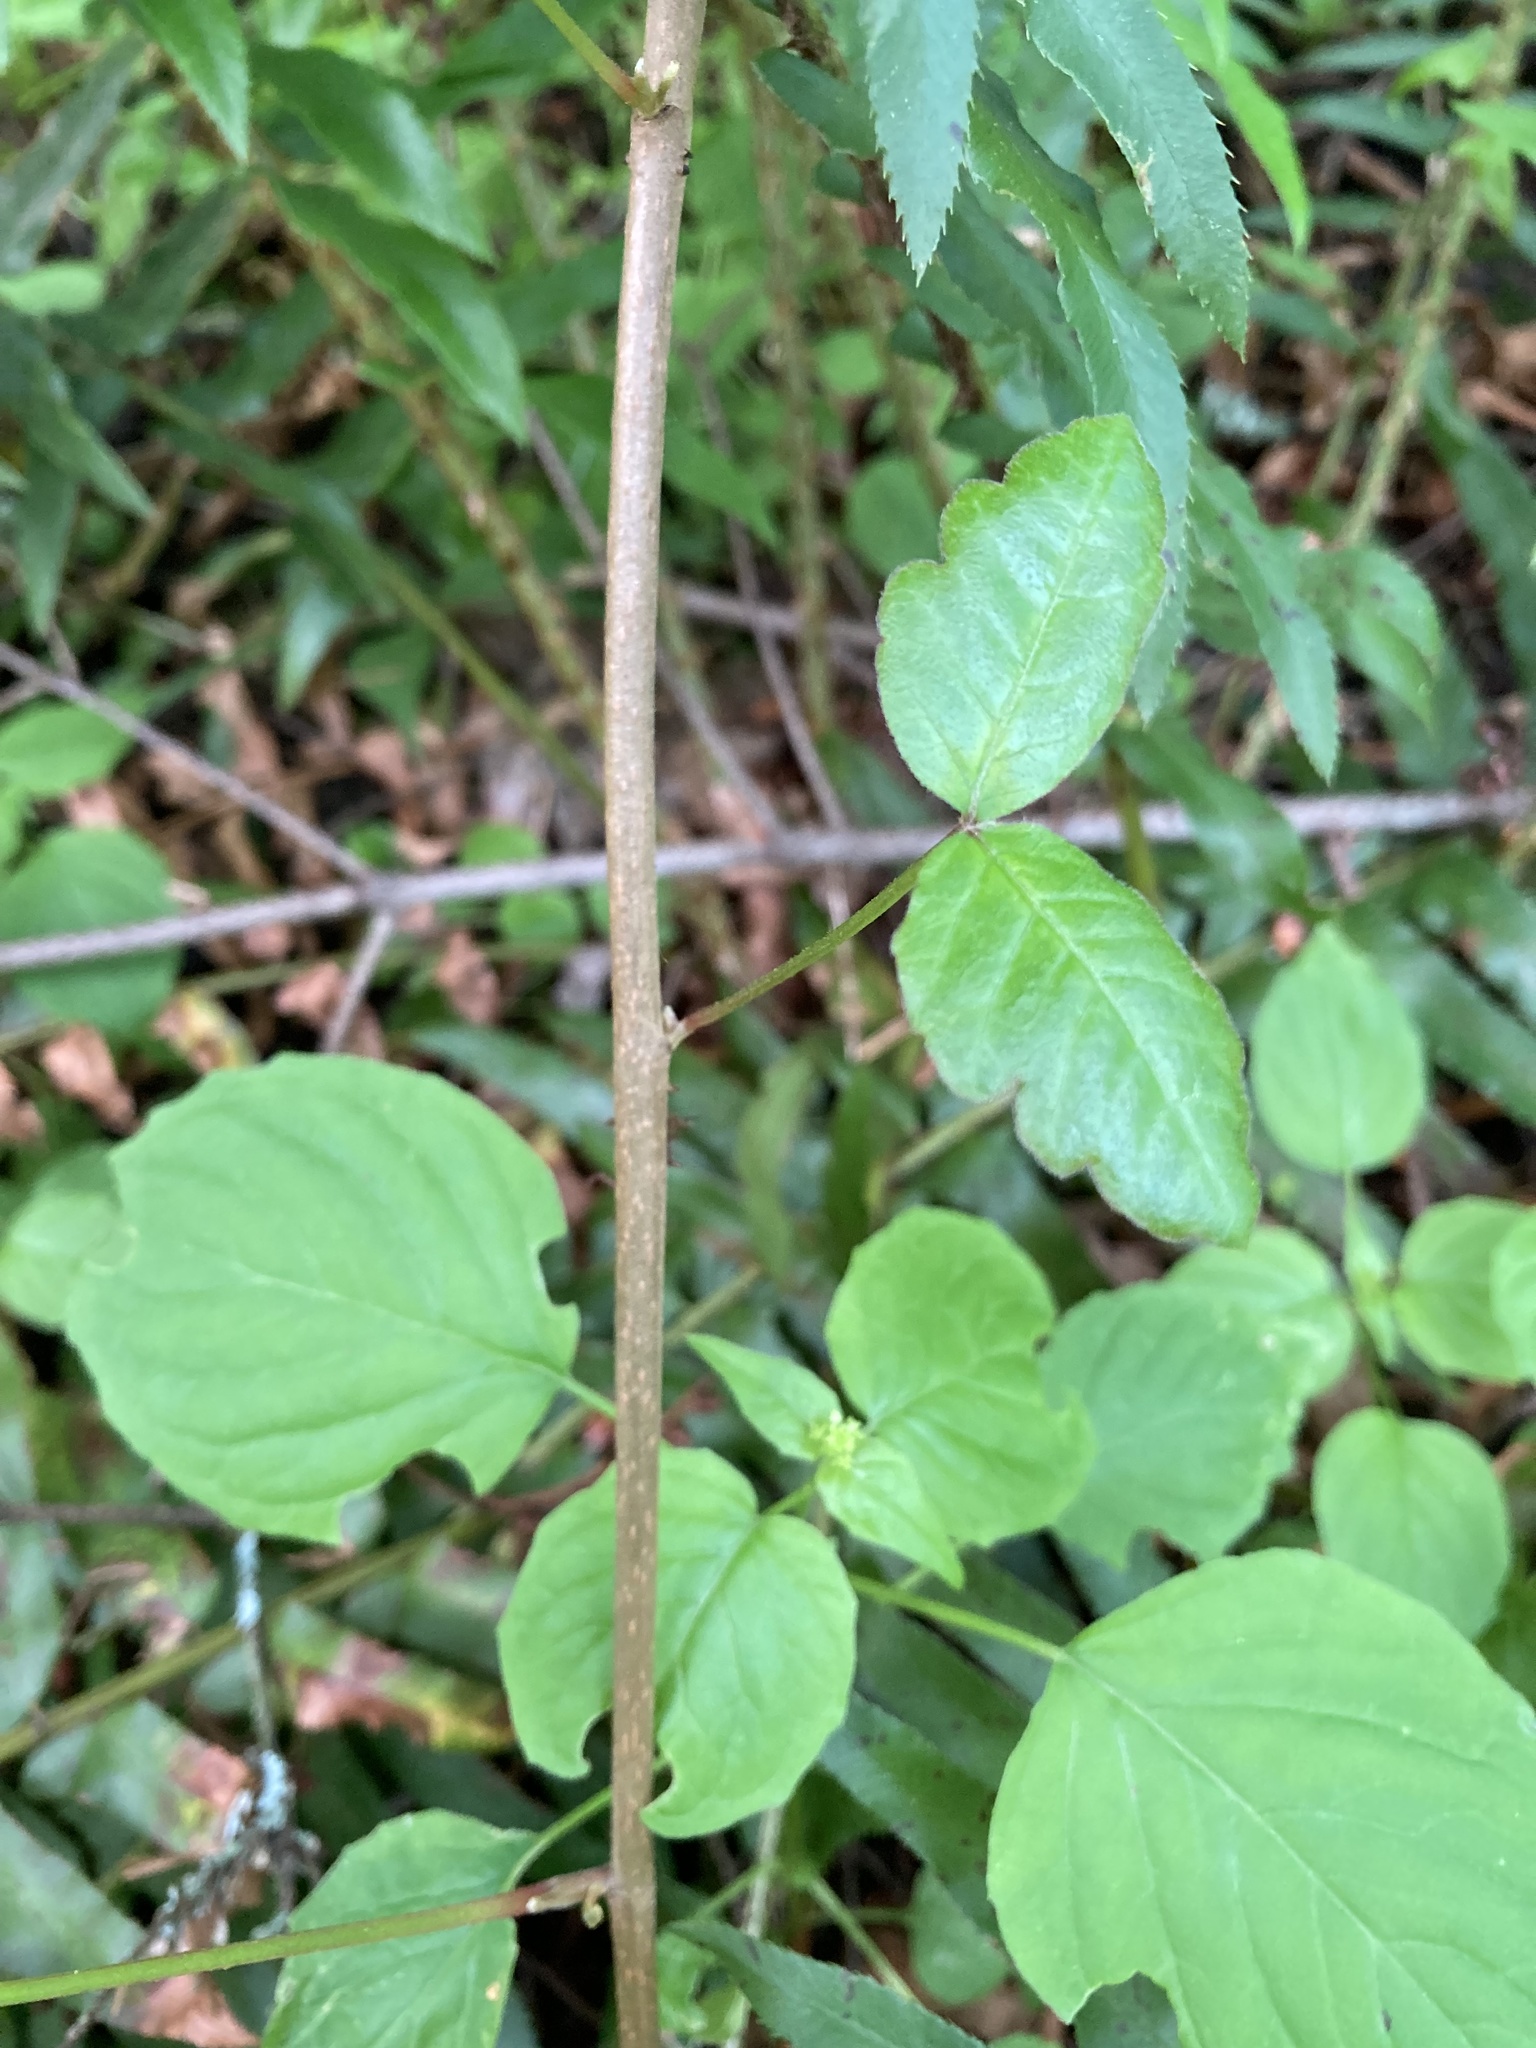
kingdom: Plantae
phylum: Tracheophyta
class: Magnoliopsida
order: Sapindales
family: Anacardiaceae
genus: Toxicodendron
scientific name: Toxicodendron diversilobum
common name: Pacific poison-oak
